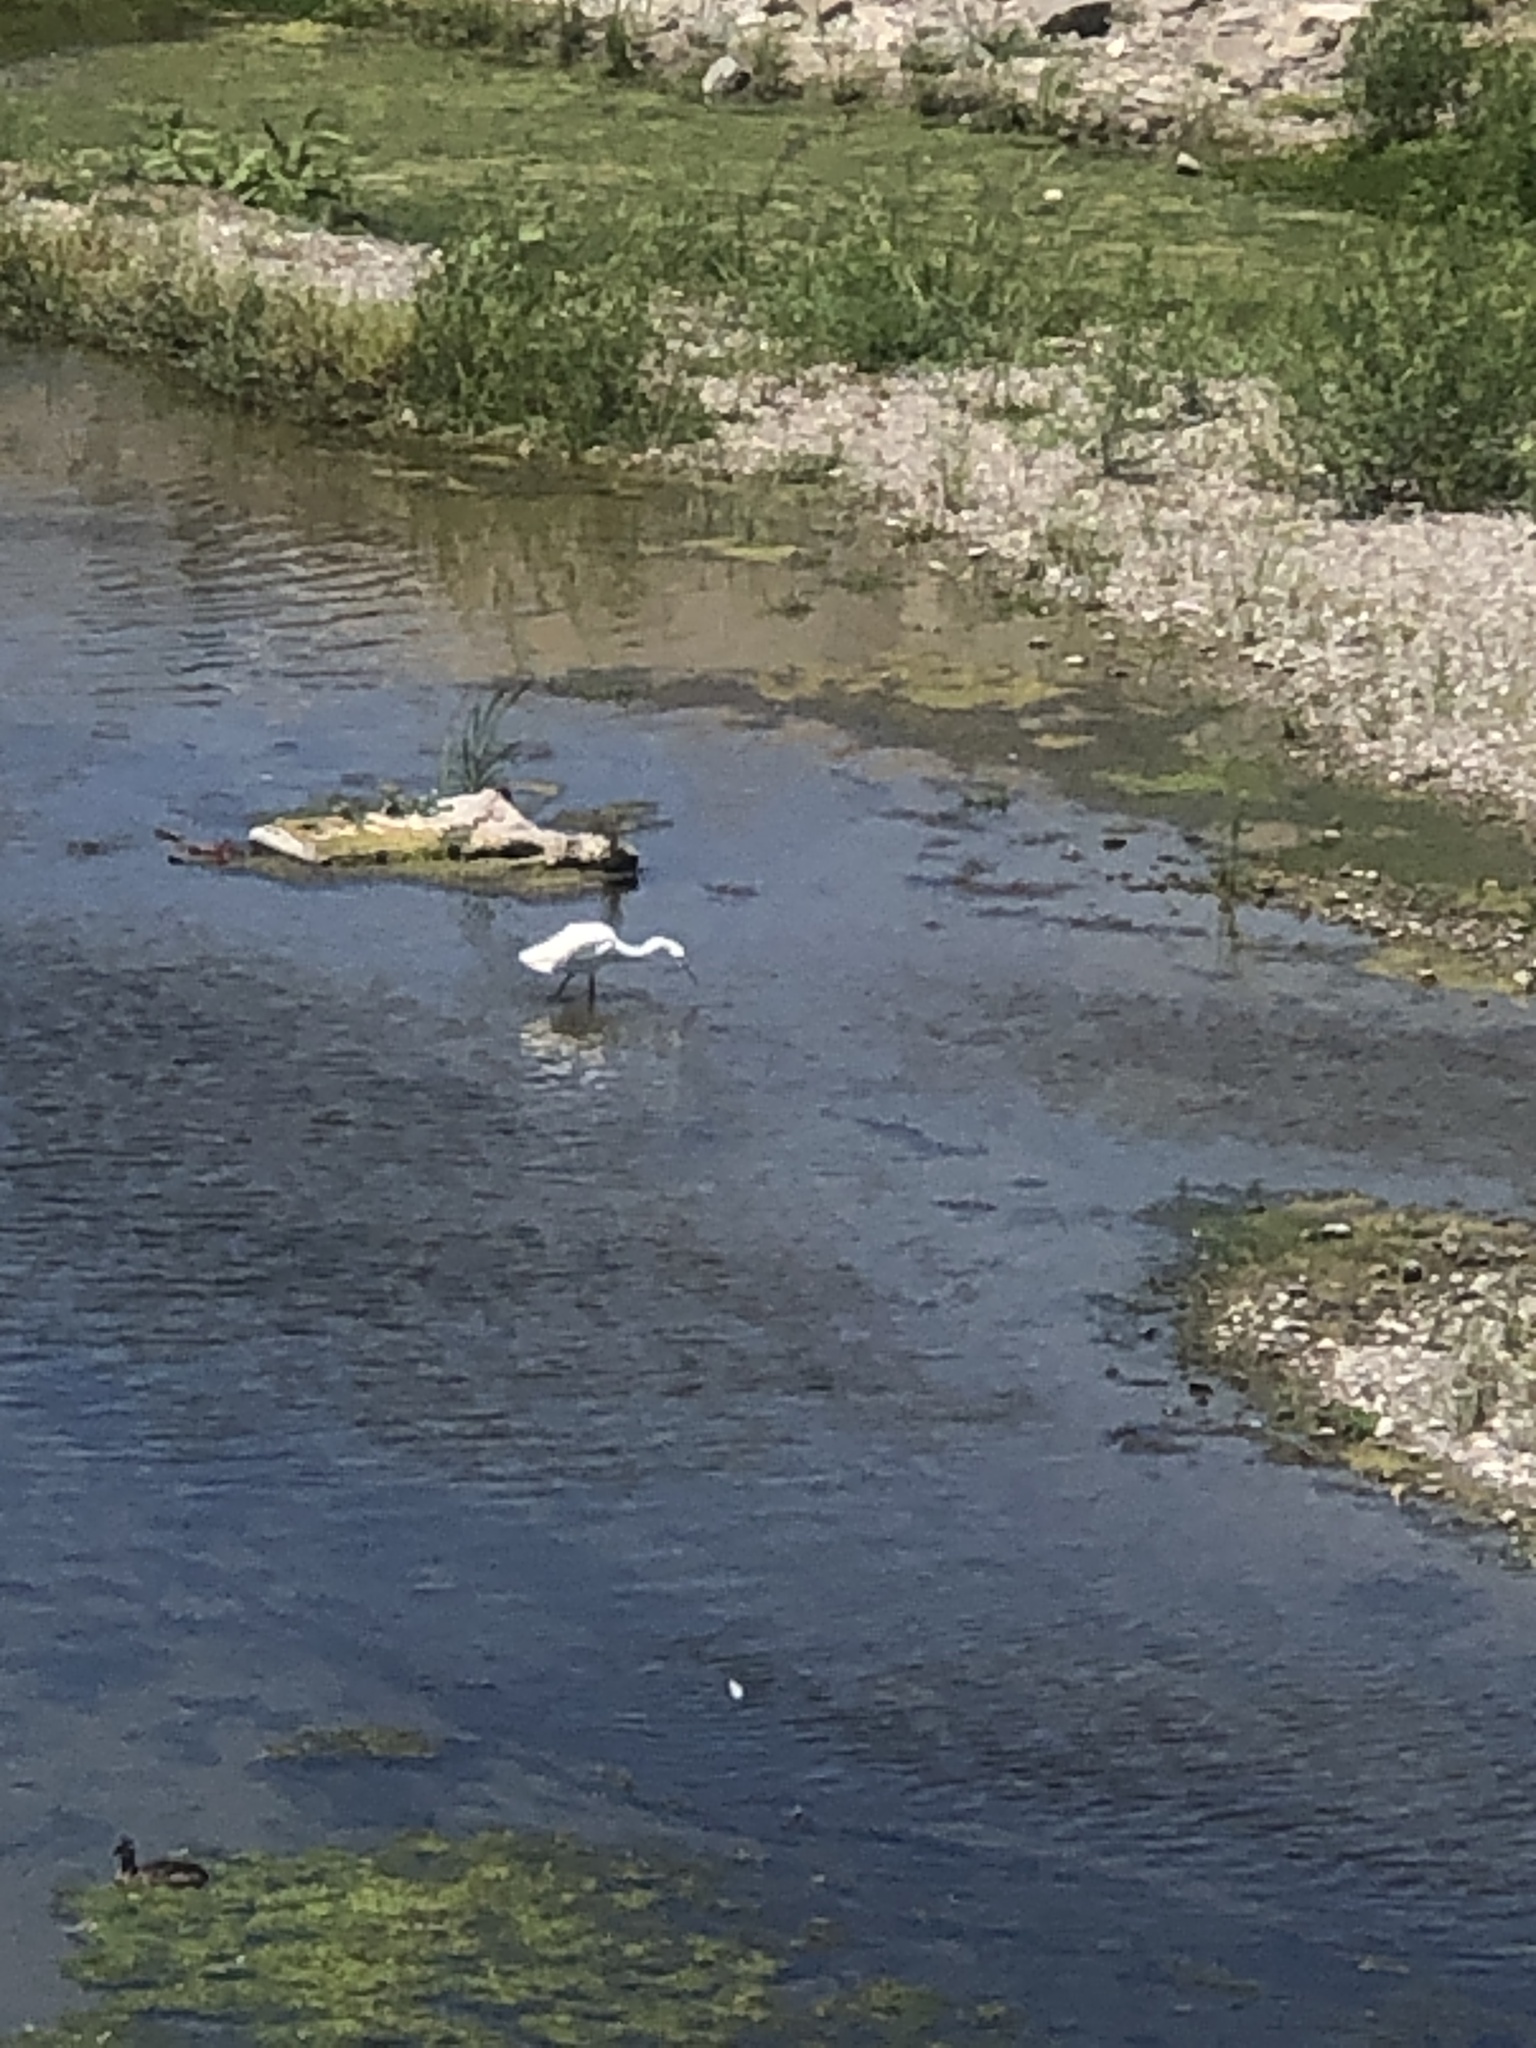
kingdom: Animalia
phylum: Chordata
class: Aves
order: Pelecaniformes
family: Ardeidae
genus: Egretta
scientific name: Egretta thula
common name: Snowy egret
